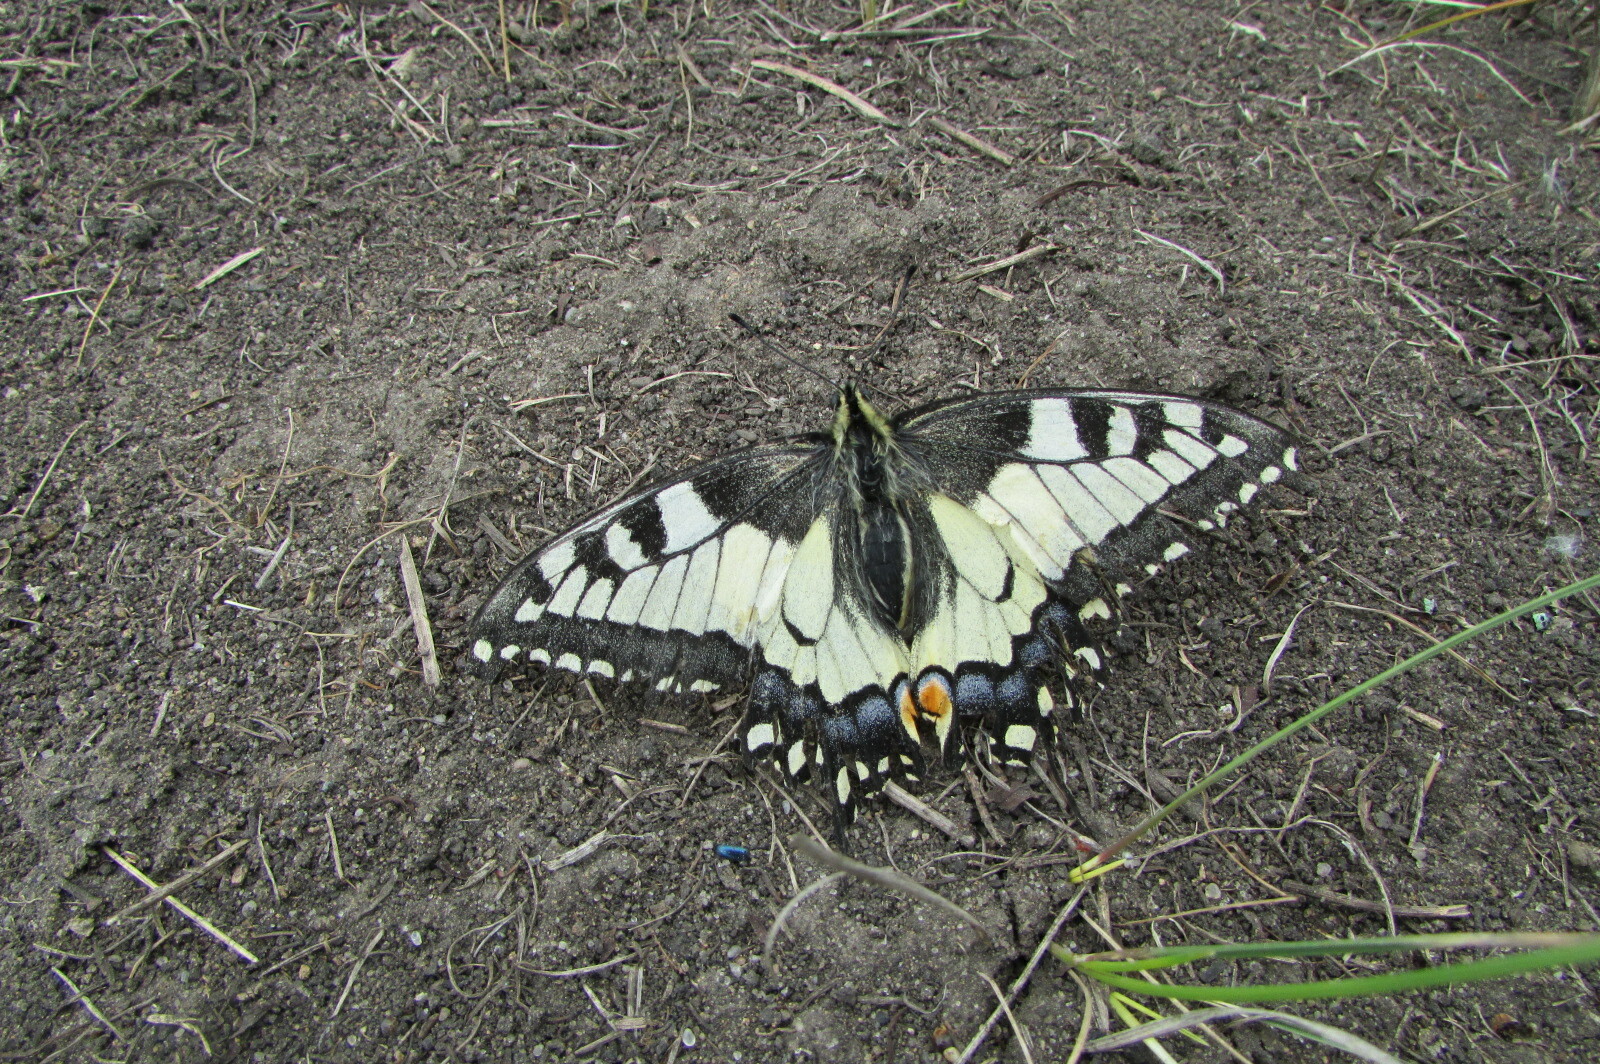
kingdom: Animalia
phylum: Arthropoda
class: Insecta
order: Lepidoptera
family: Papilionidae
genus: Papilio
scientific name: Papilio machaon
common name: Swallowtail
